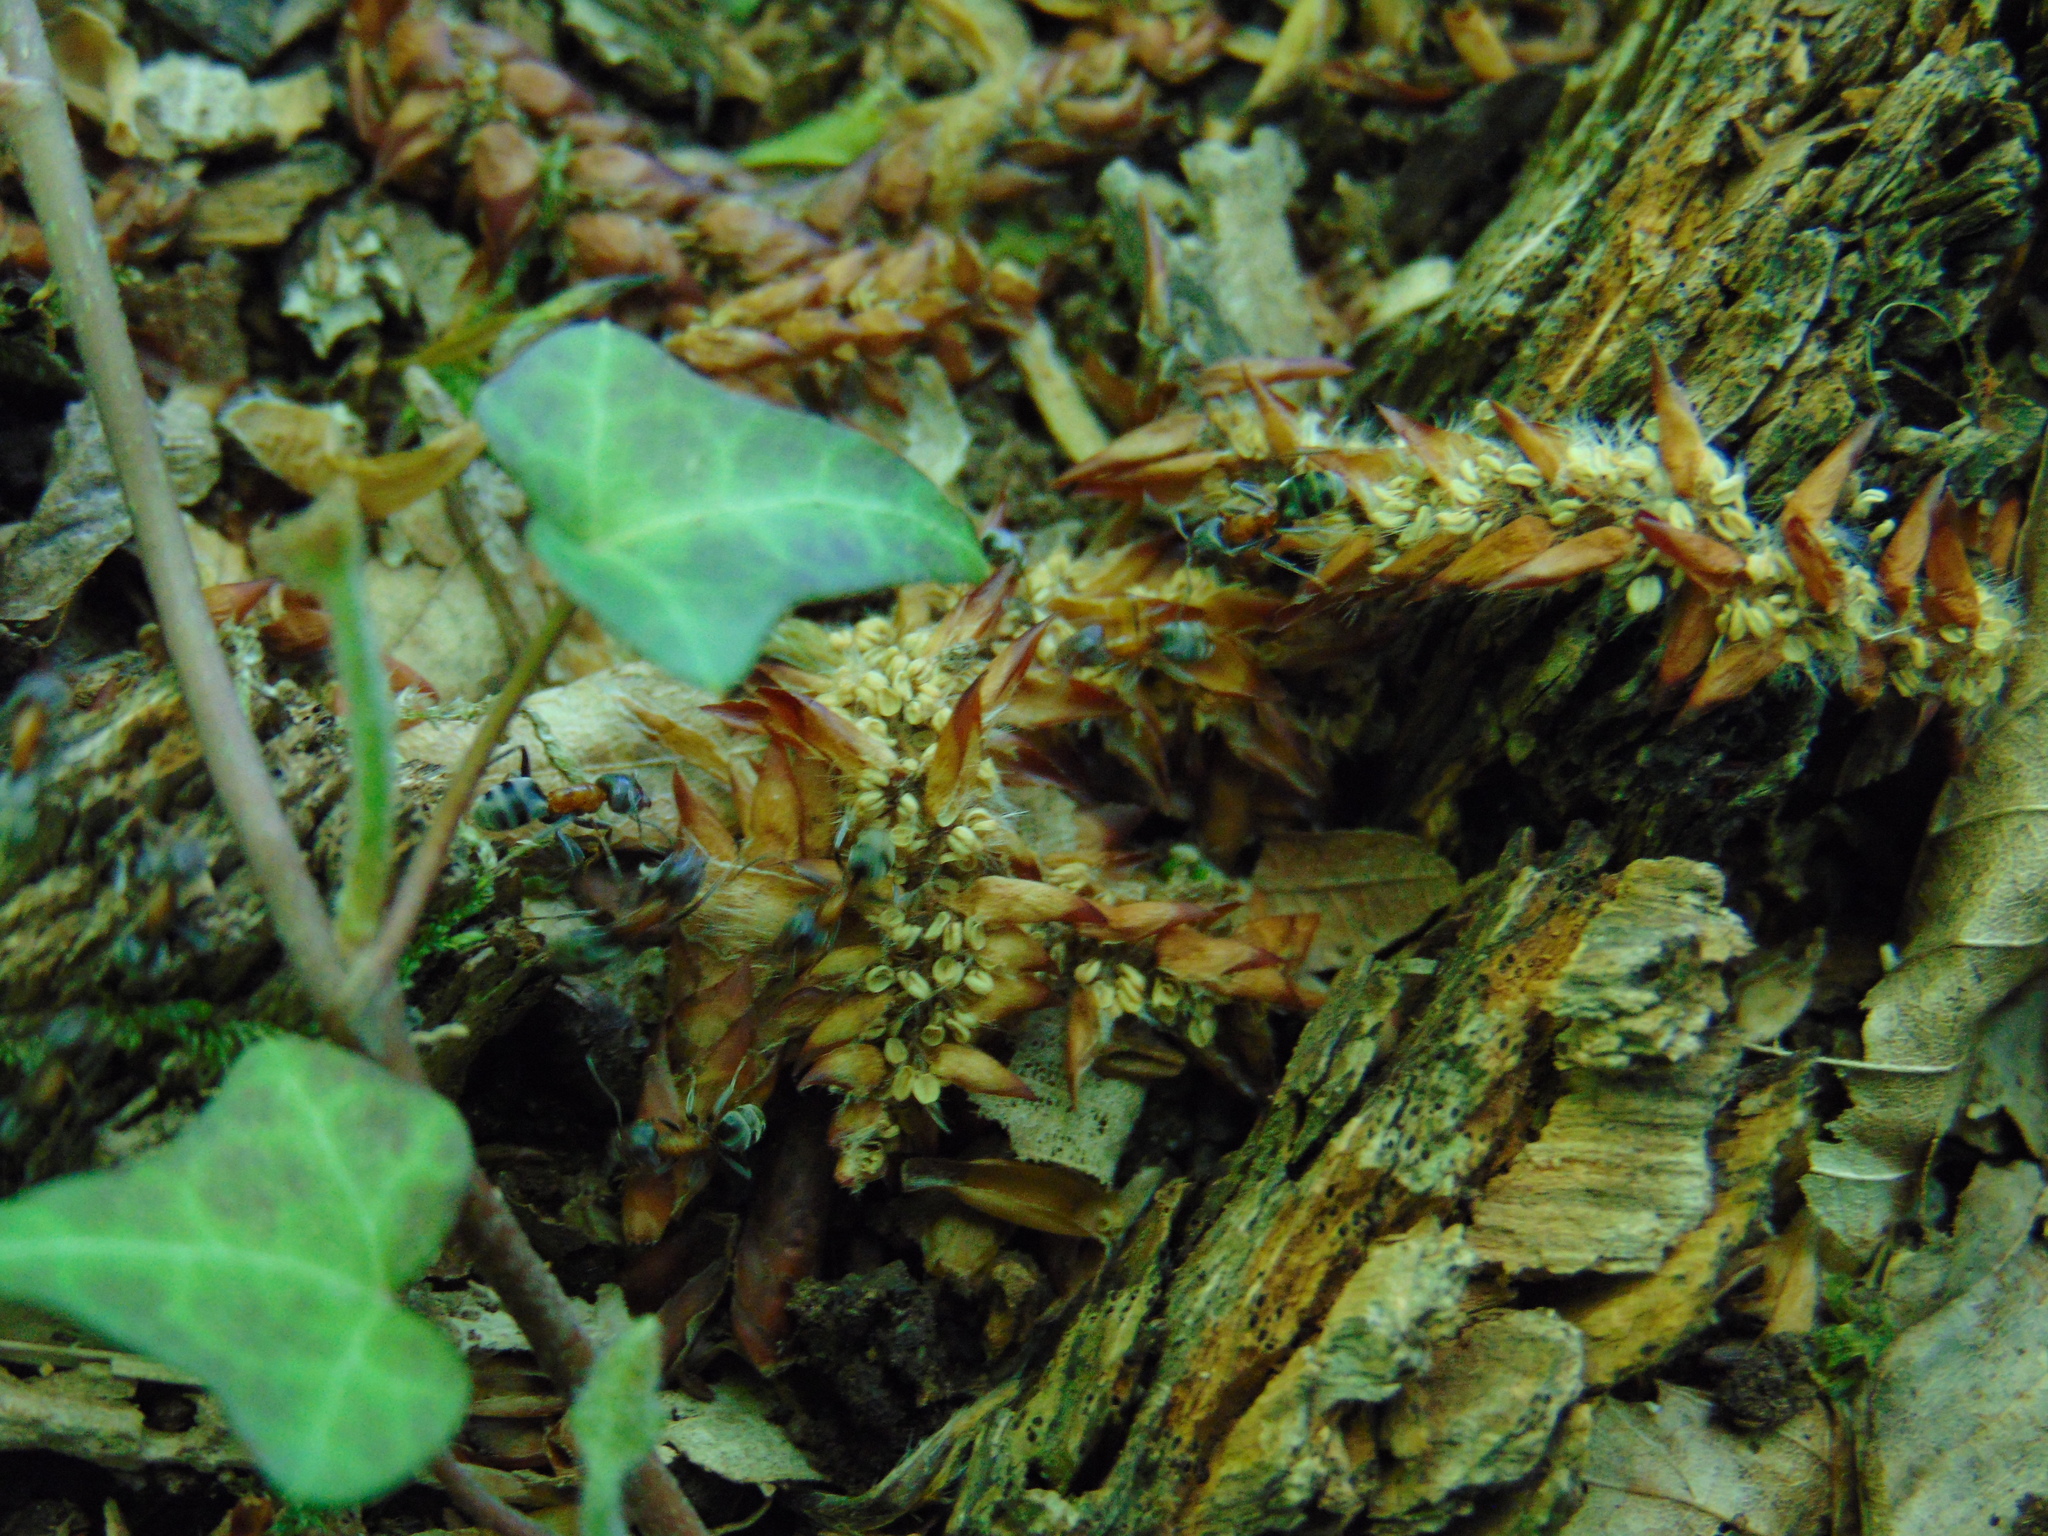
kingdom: Animalia
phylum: Arthropoda
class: Insecta
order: Hymenoptera
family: Formicidae
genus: Liometopum
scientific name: Liometopum microcephalum
